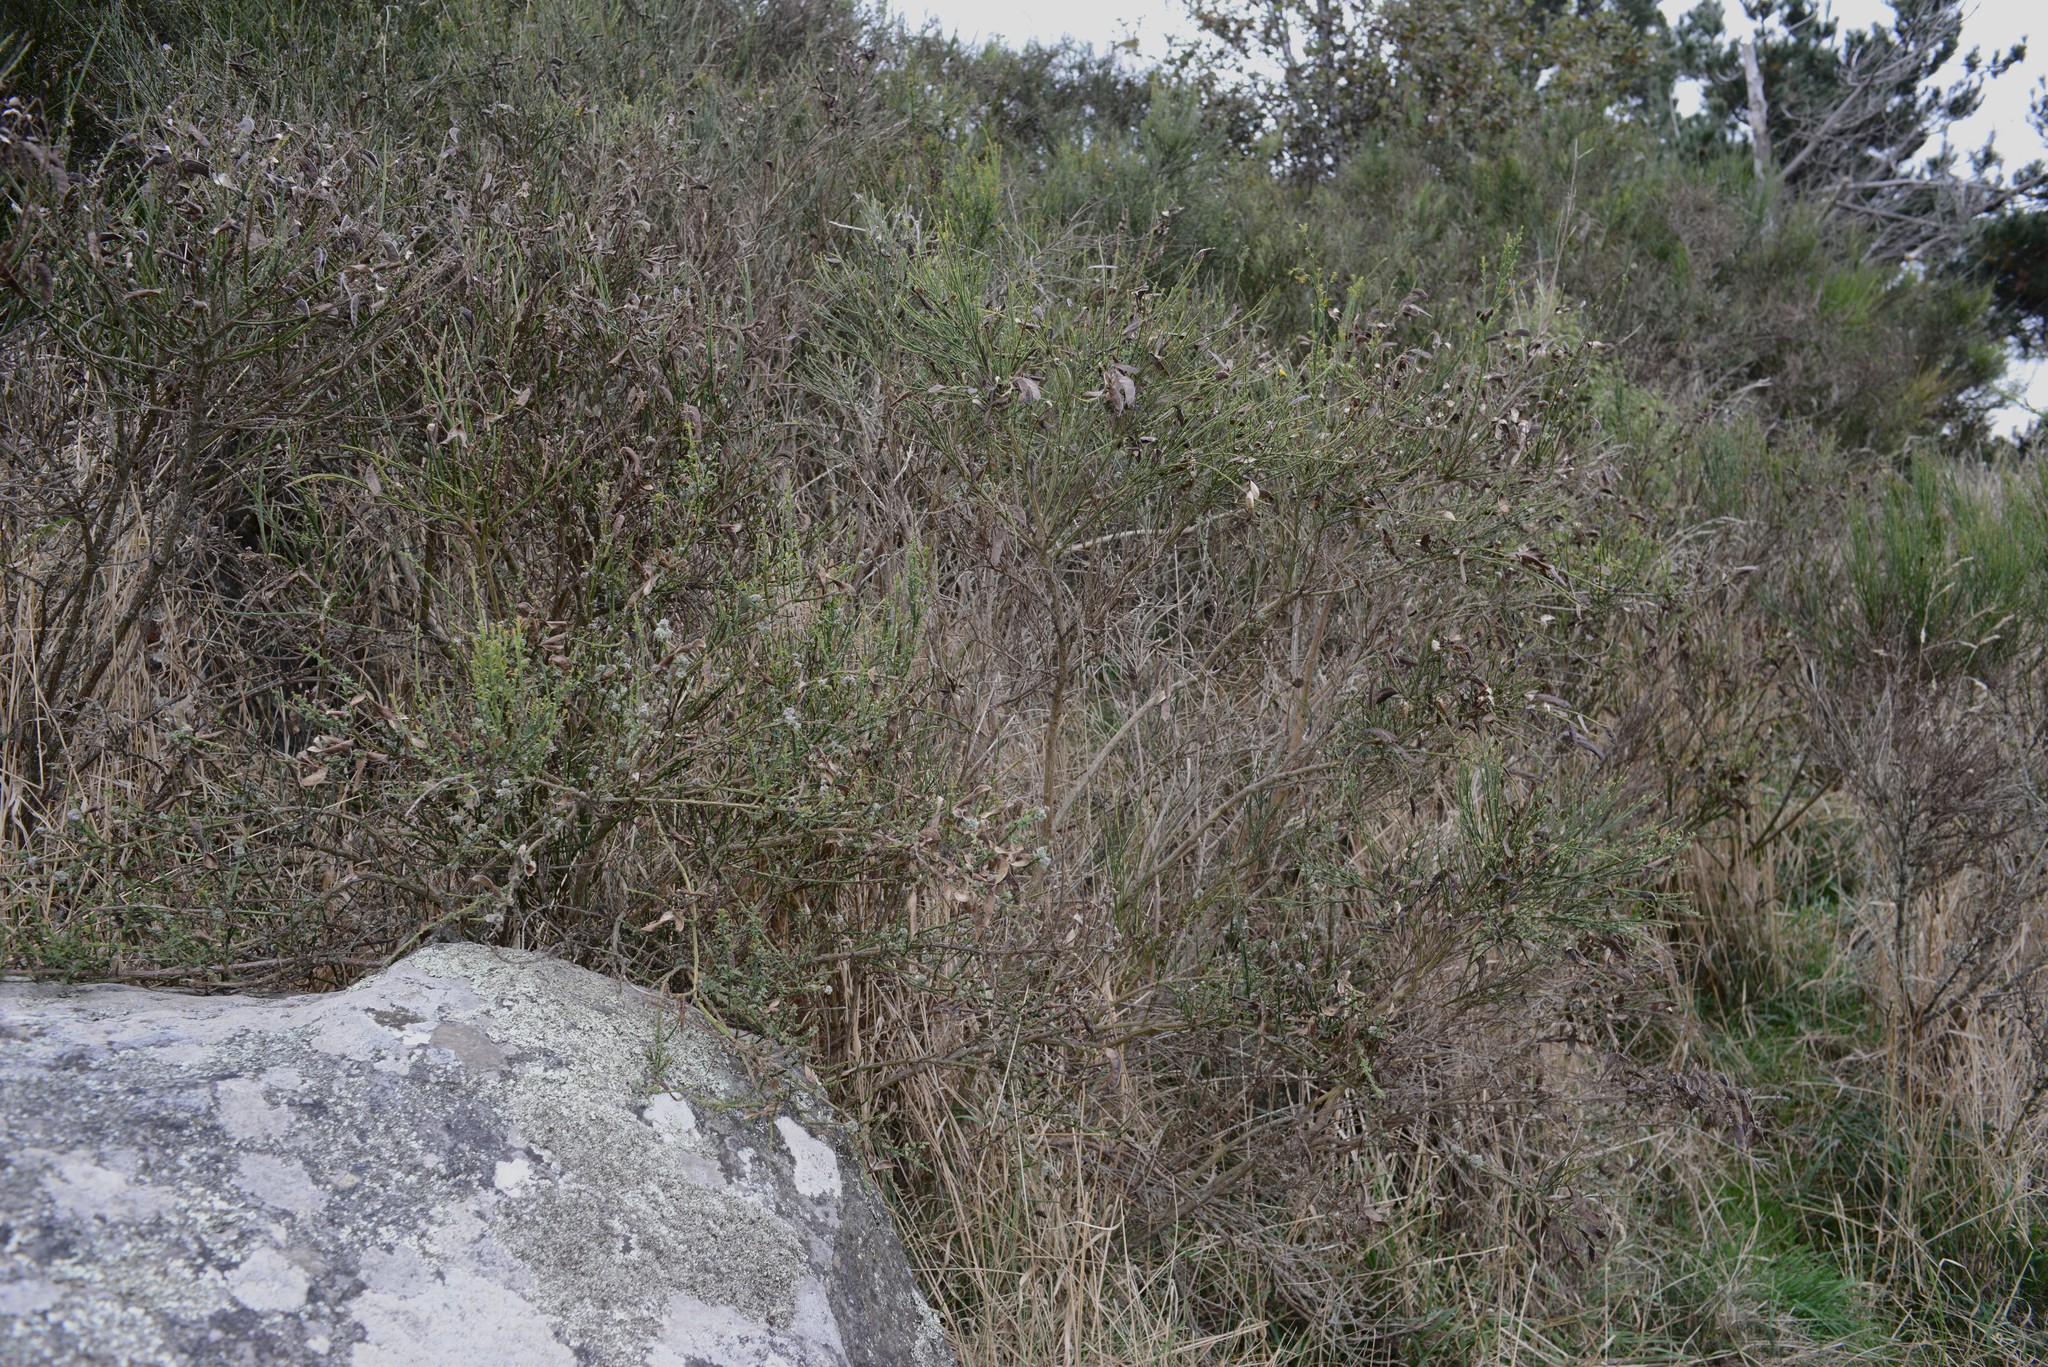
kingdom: Plantae
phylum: Tracheophyta
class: Magnoliopsida
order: Fabales
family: Fabaceae
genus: Cytisus
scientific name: Cytisus scoparius
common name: Scotch broom
